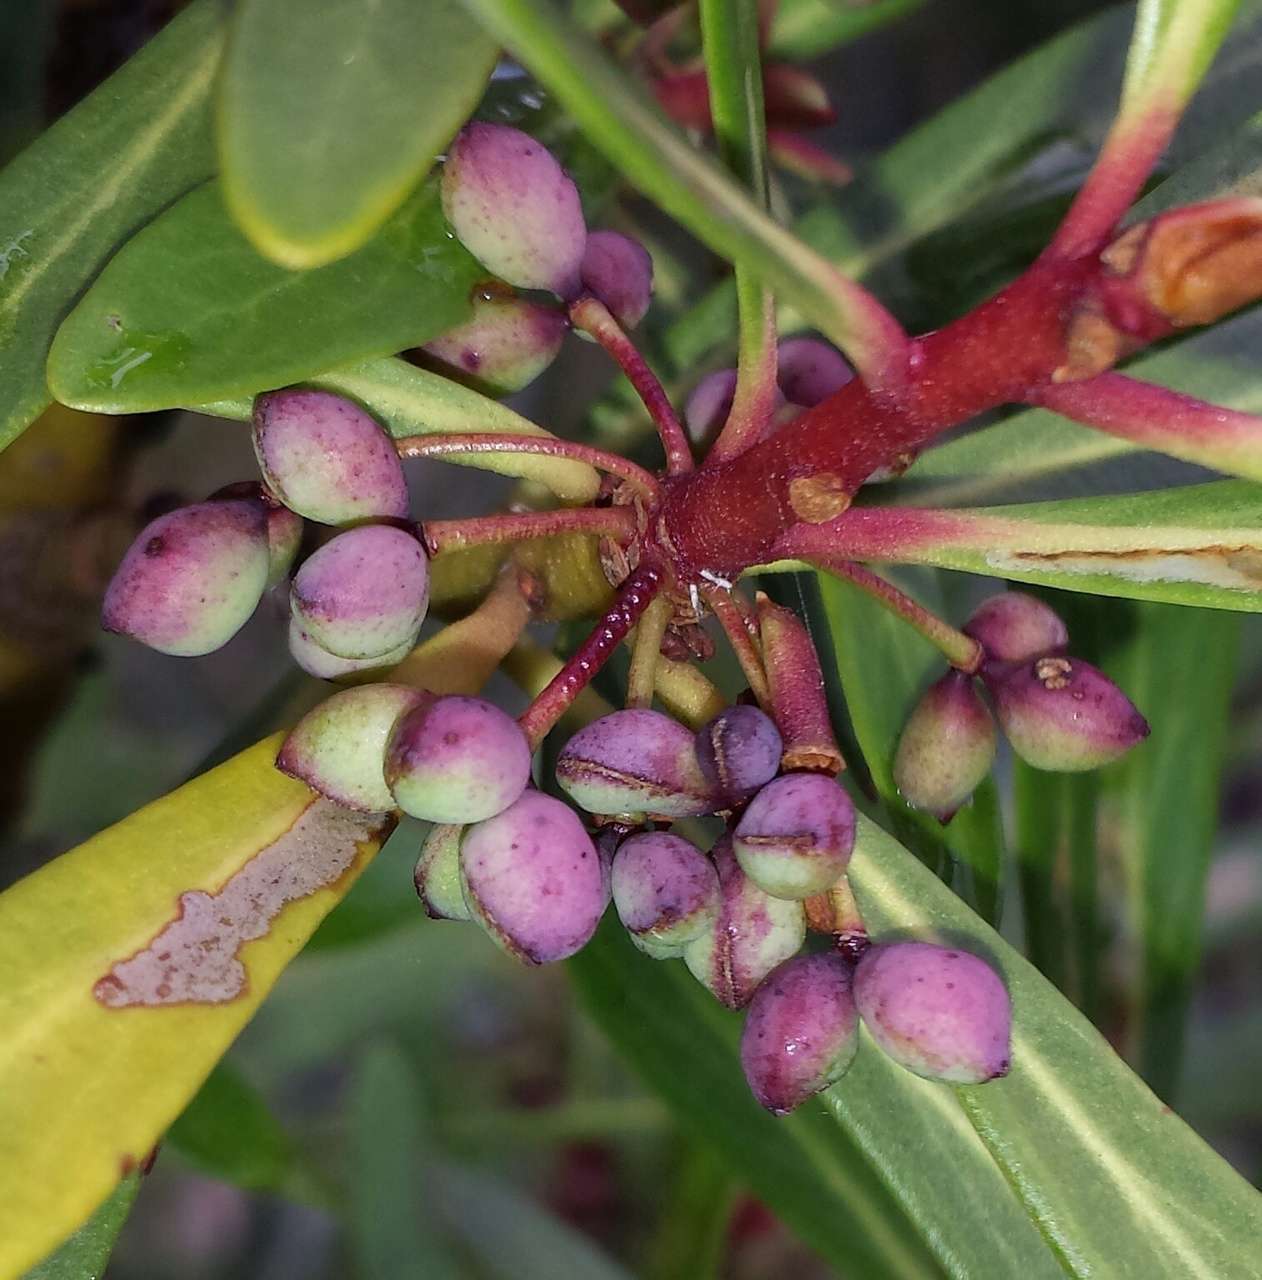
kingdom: Plantae
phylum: Tracheophyta
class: Magnoliopsida
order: Canellales
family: Winteraceae
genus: Drimys
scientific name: Drimys xerophila
